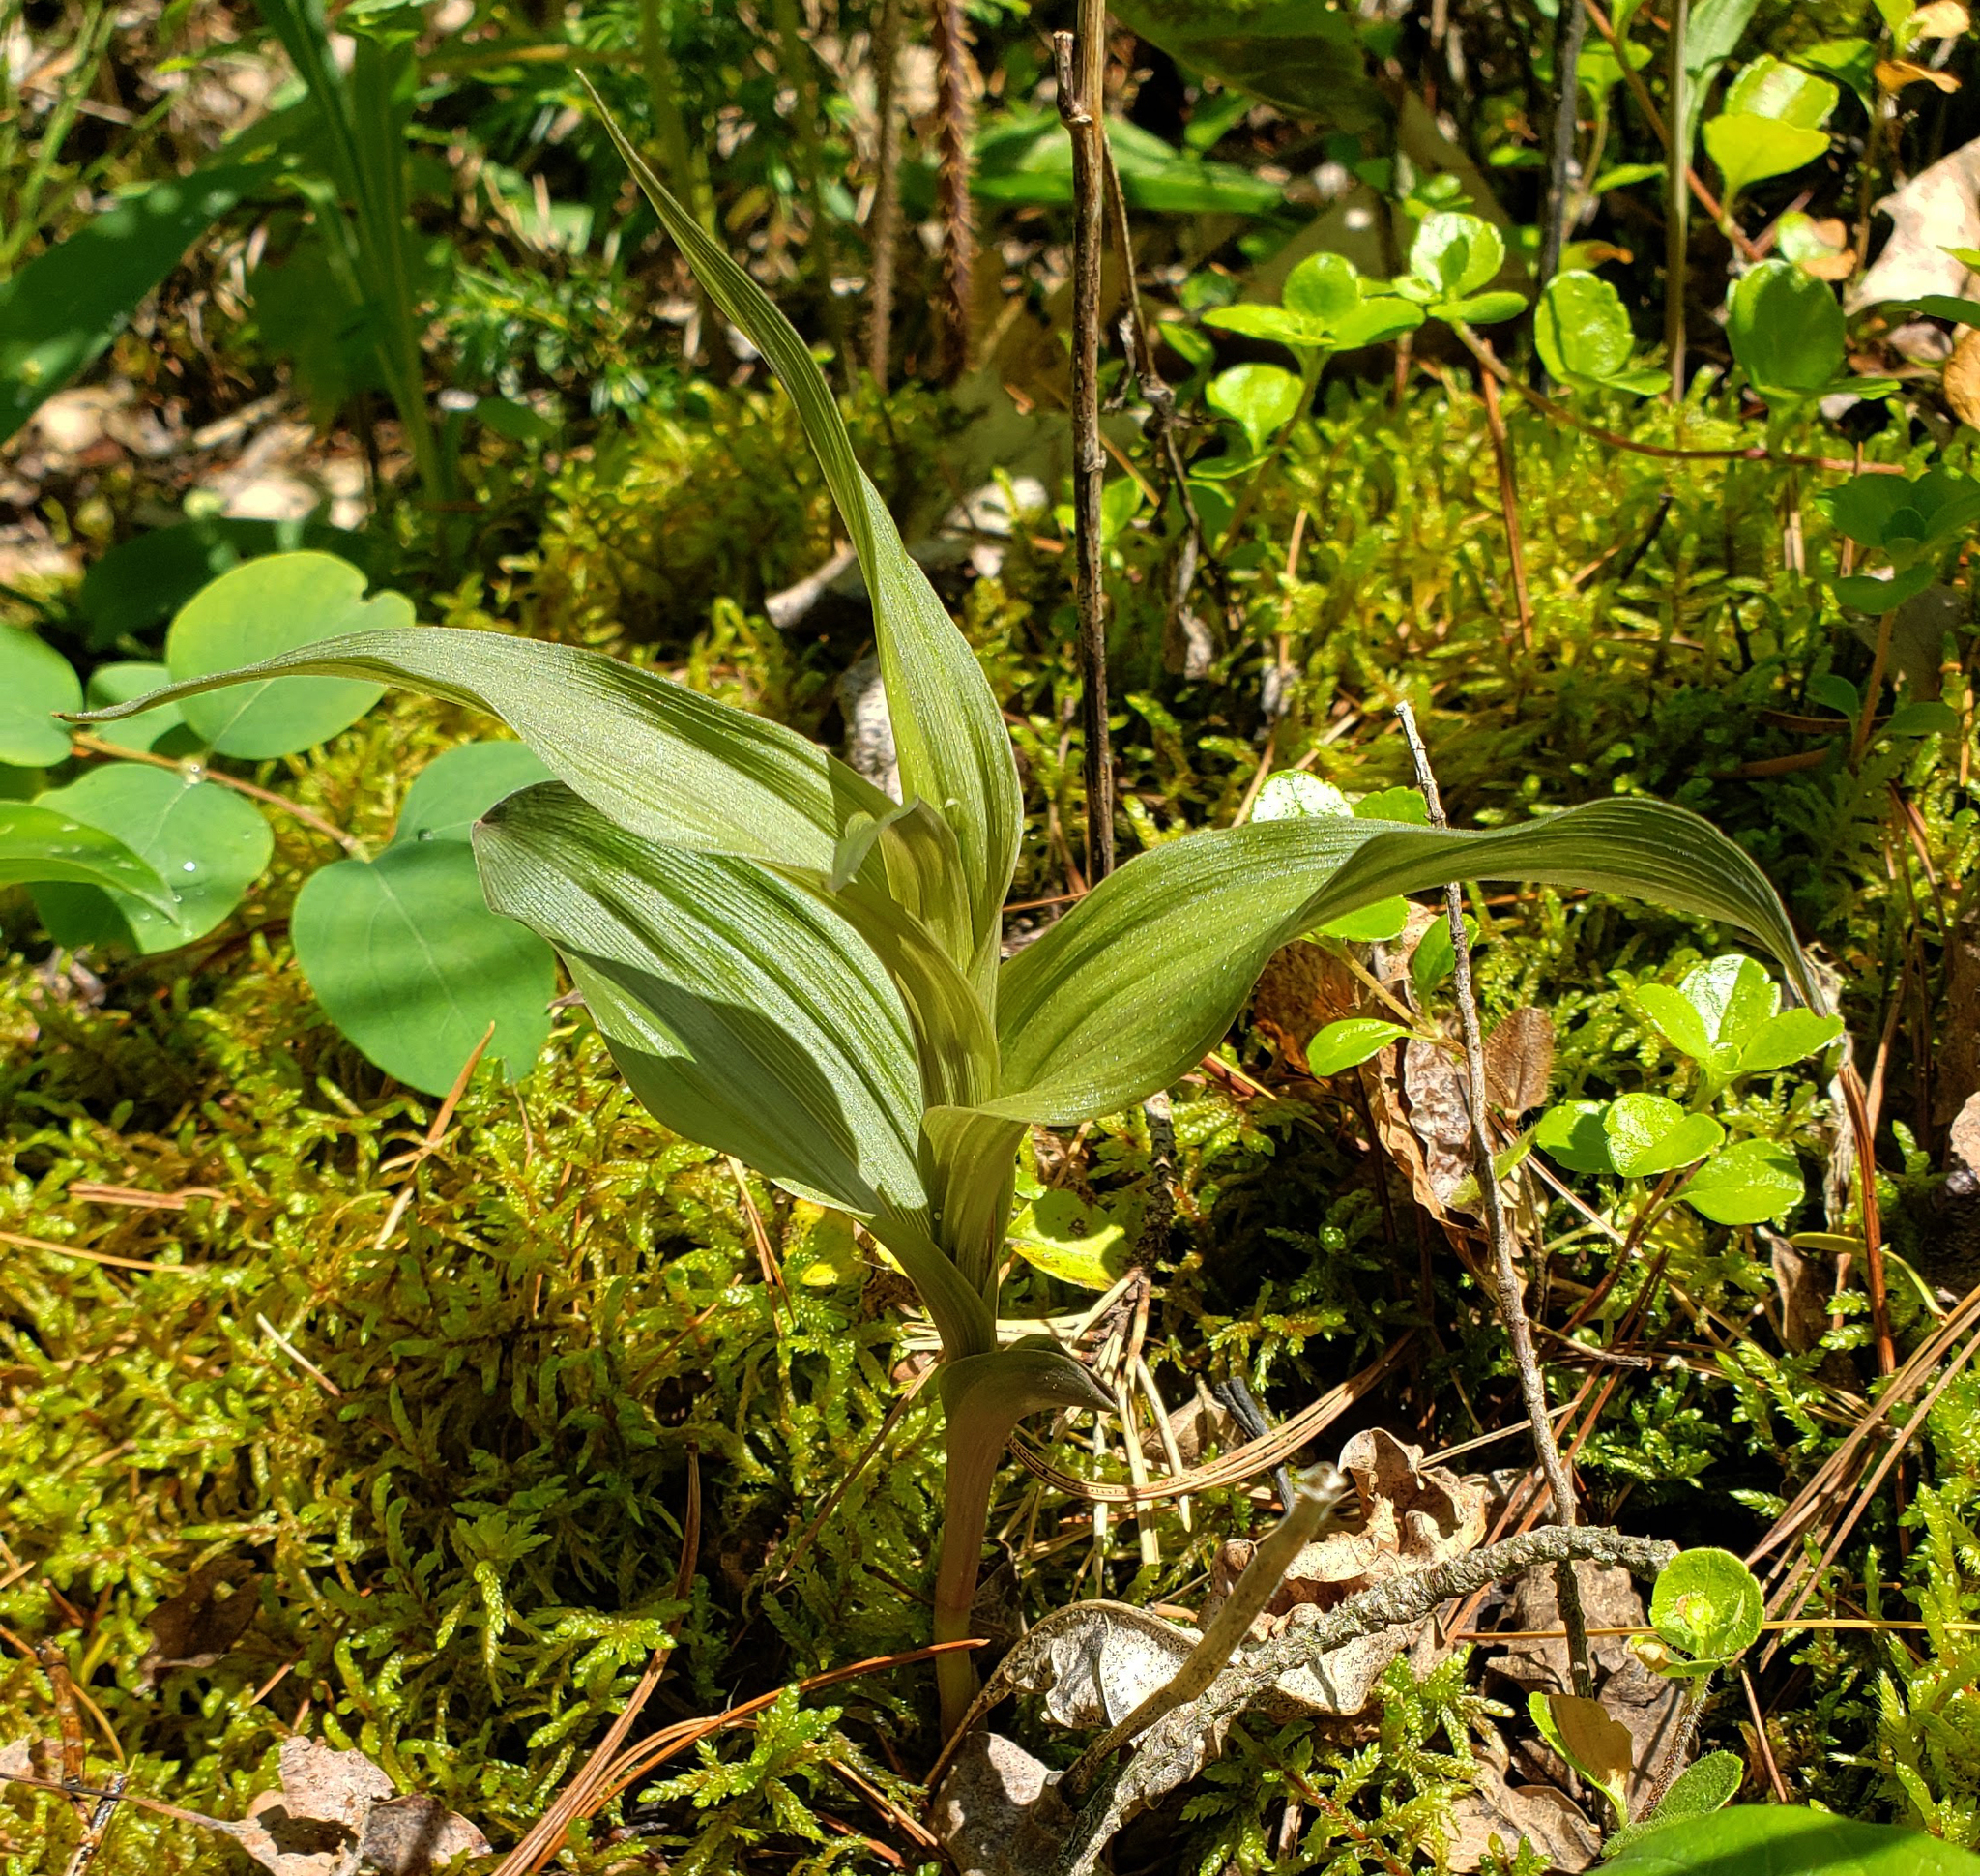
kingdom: Plantae
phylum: Tracheophyta
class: Liliopsida
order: Asparagales
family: Orchidaceae
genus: Epipactis
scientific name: Epipactis helleborine
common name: Broad-leaved helleborine
